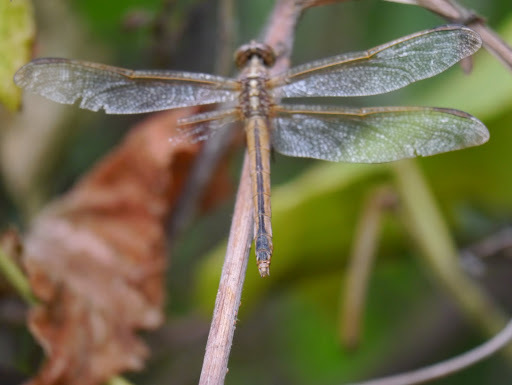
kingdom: Animalia
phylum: Arthropoda
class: Insecta
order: Odonata
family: Libellulidae
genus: Libellula
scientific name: Libellula needhami
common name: Needham's skimmer
